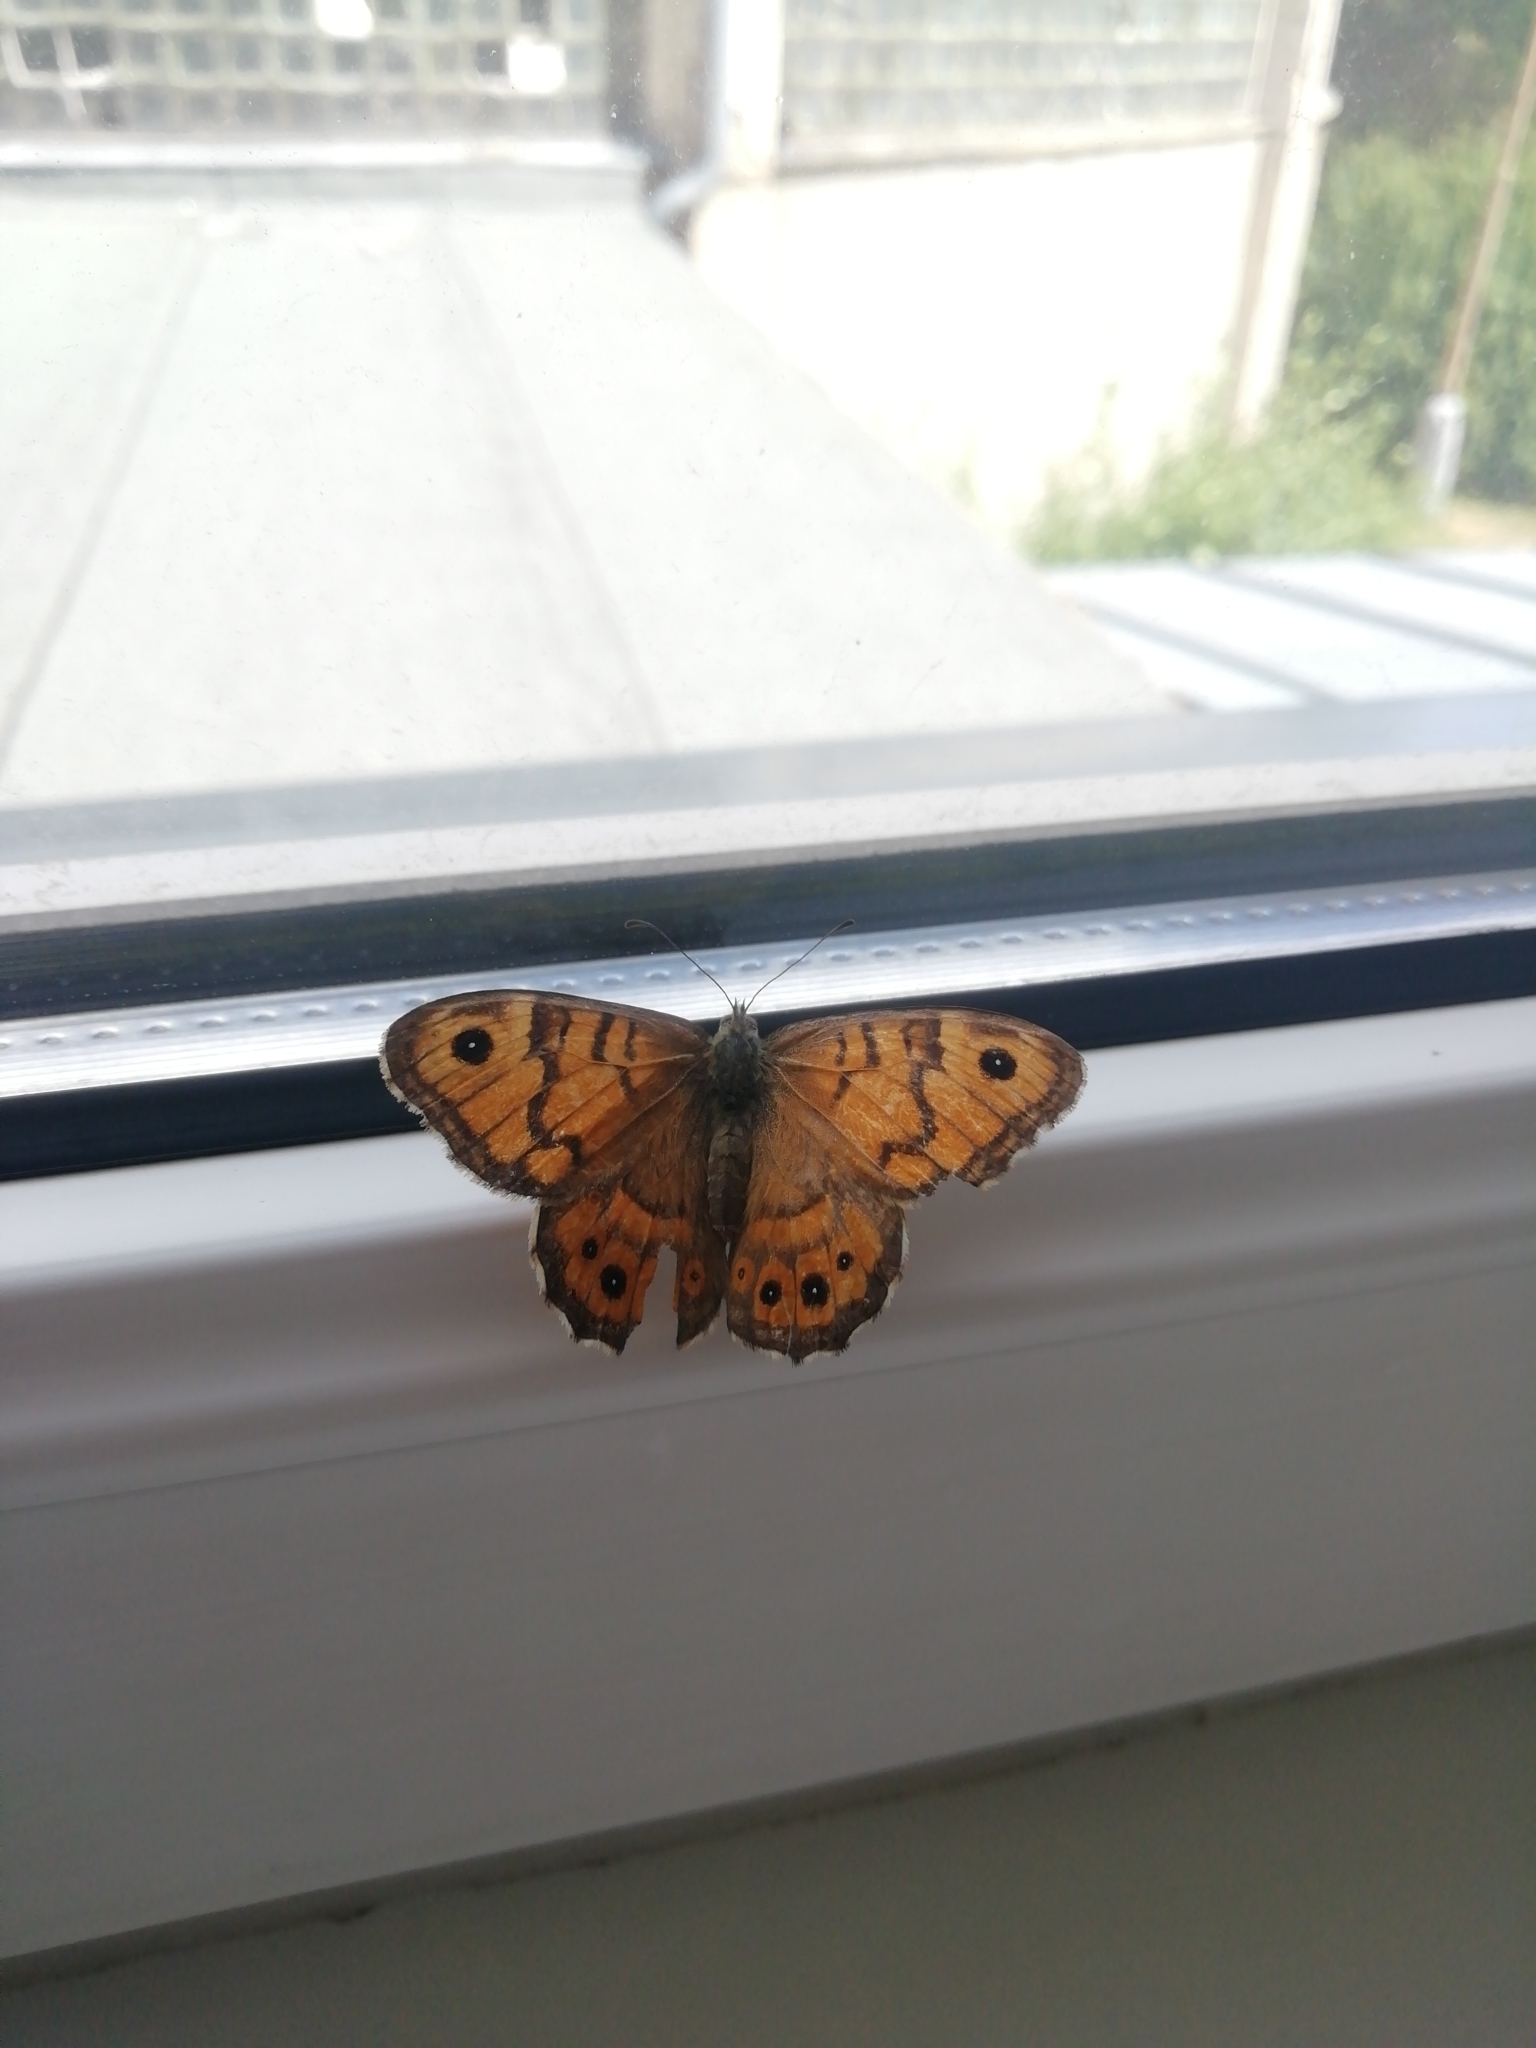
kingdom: Animalia
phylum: Arthropoda
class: Insecta
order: Lepidoptera
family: Nymphalidae
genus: Pararge
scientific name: Pararge Lasiommata megera
